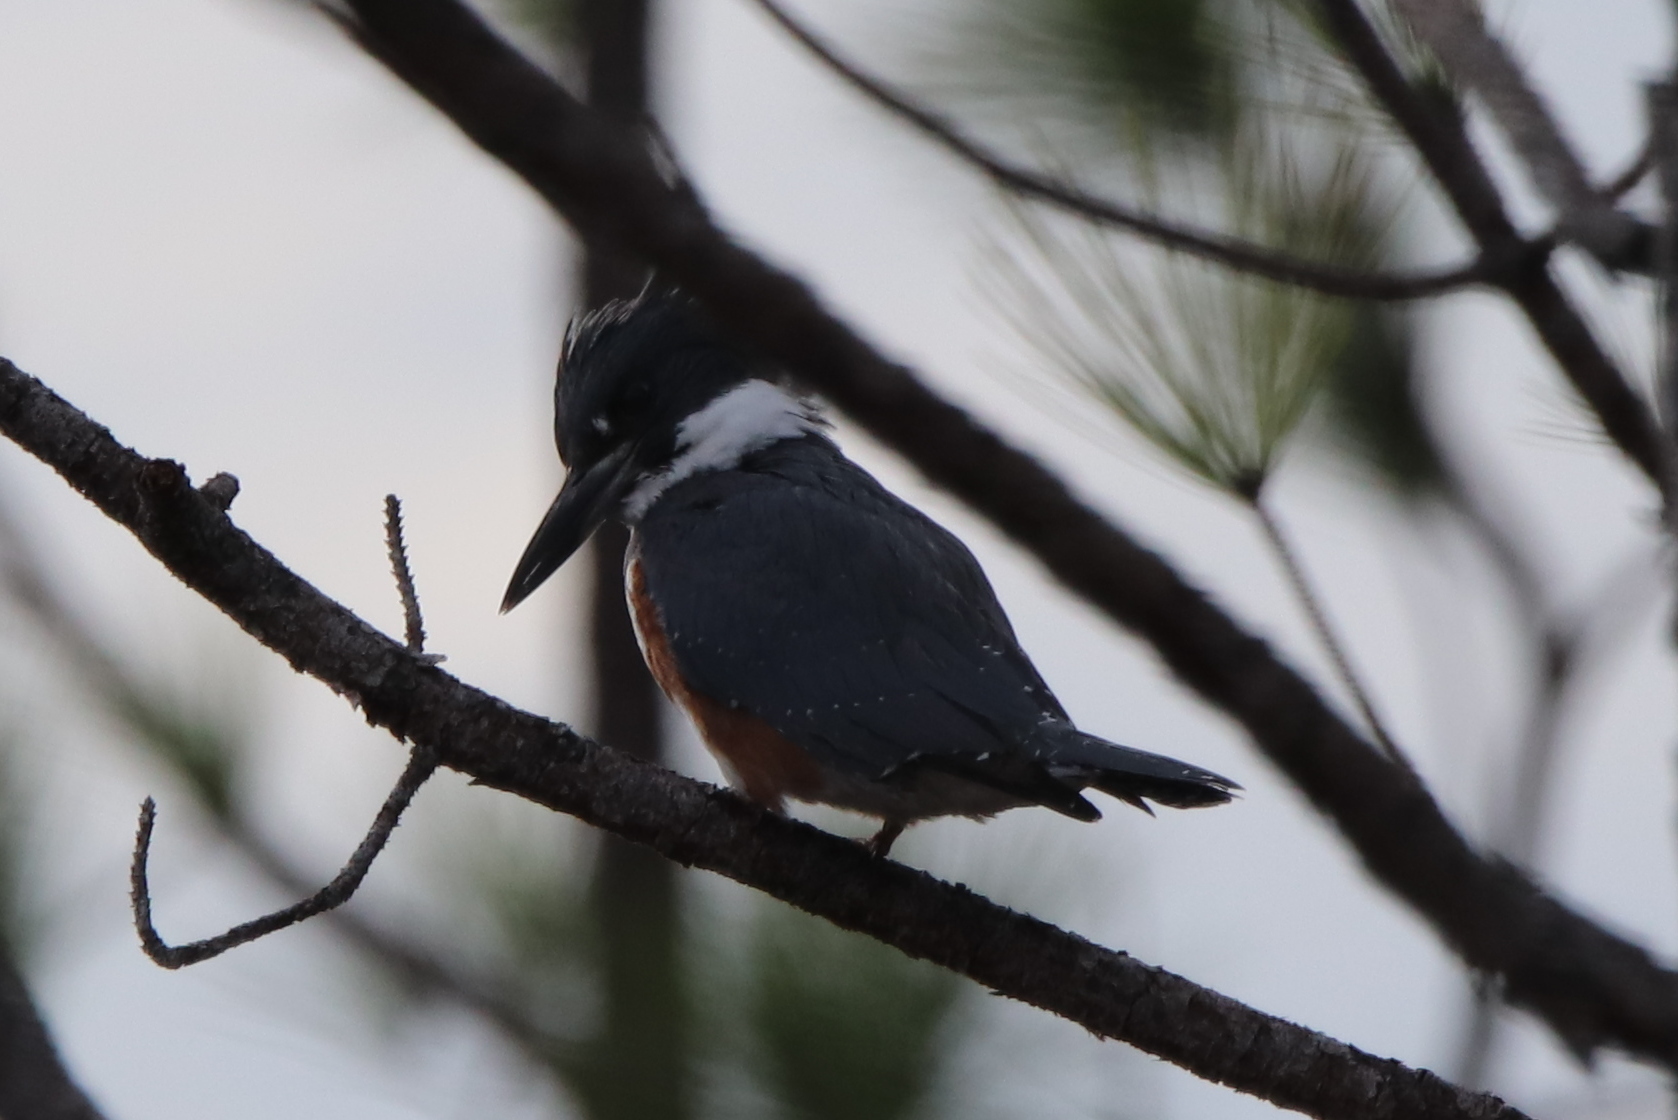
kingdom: Animalia
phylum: Chordata
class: Aves
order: Coraciiformes
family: Alcedinidae
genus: Megaceryle
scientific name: Megaceryle alcyon
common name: Belted kingfisher
